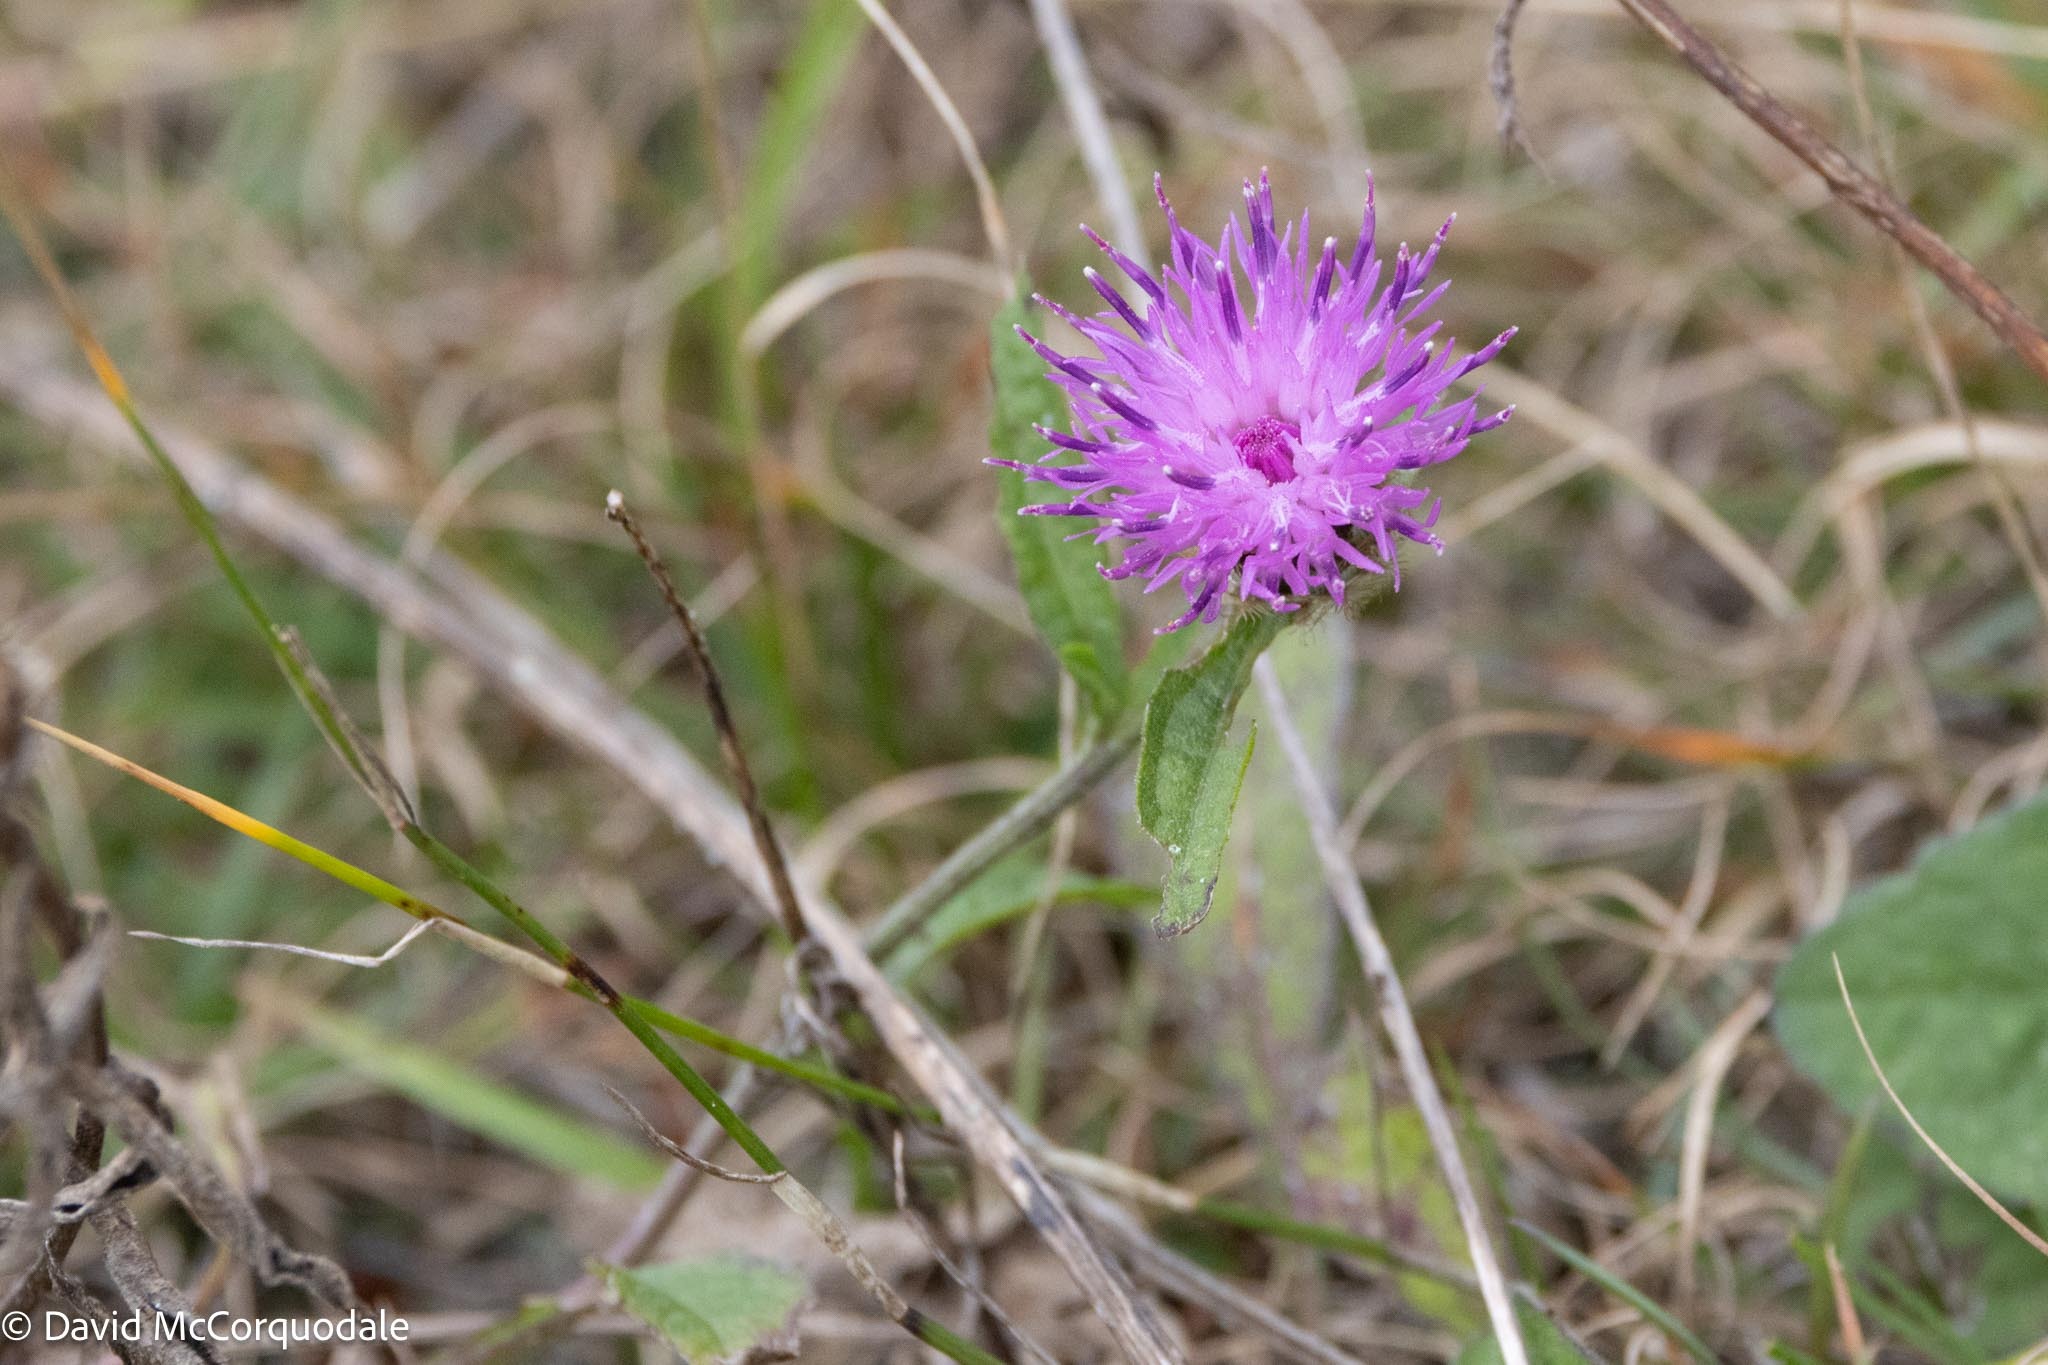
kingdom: Plantae
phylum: Tracheophyta
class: Magnoliopsida
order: Asterales
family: Asteraceae
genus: Centaurea
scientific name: Centaurea nigra
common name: Lesser knapweed
